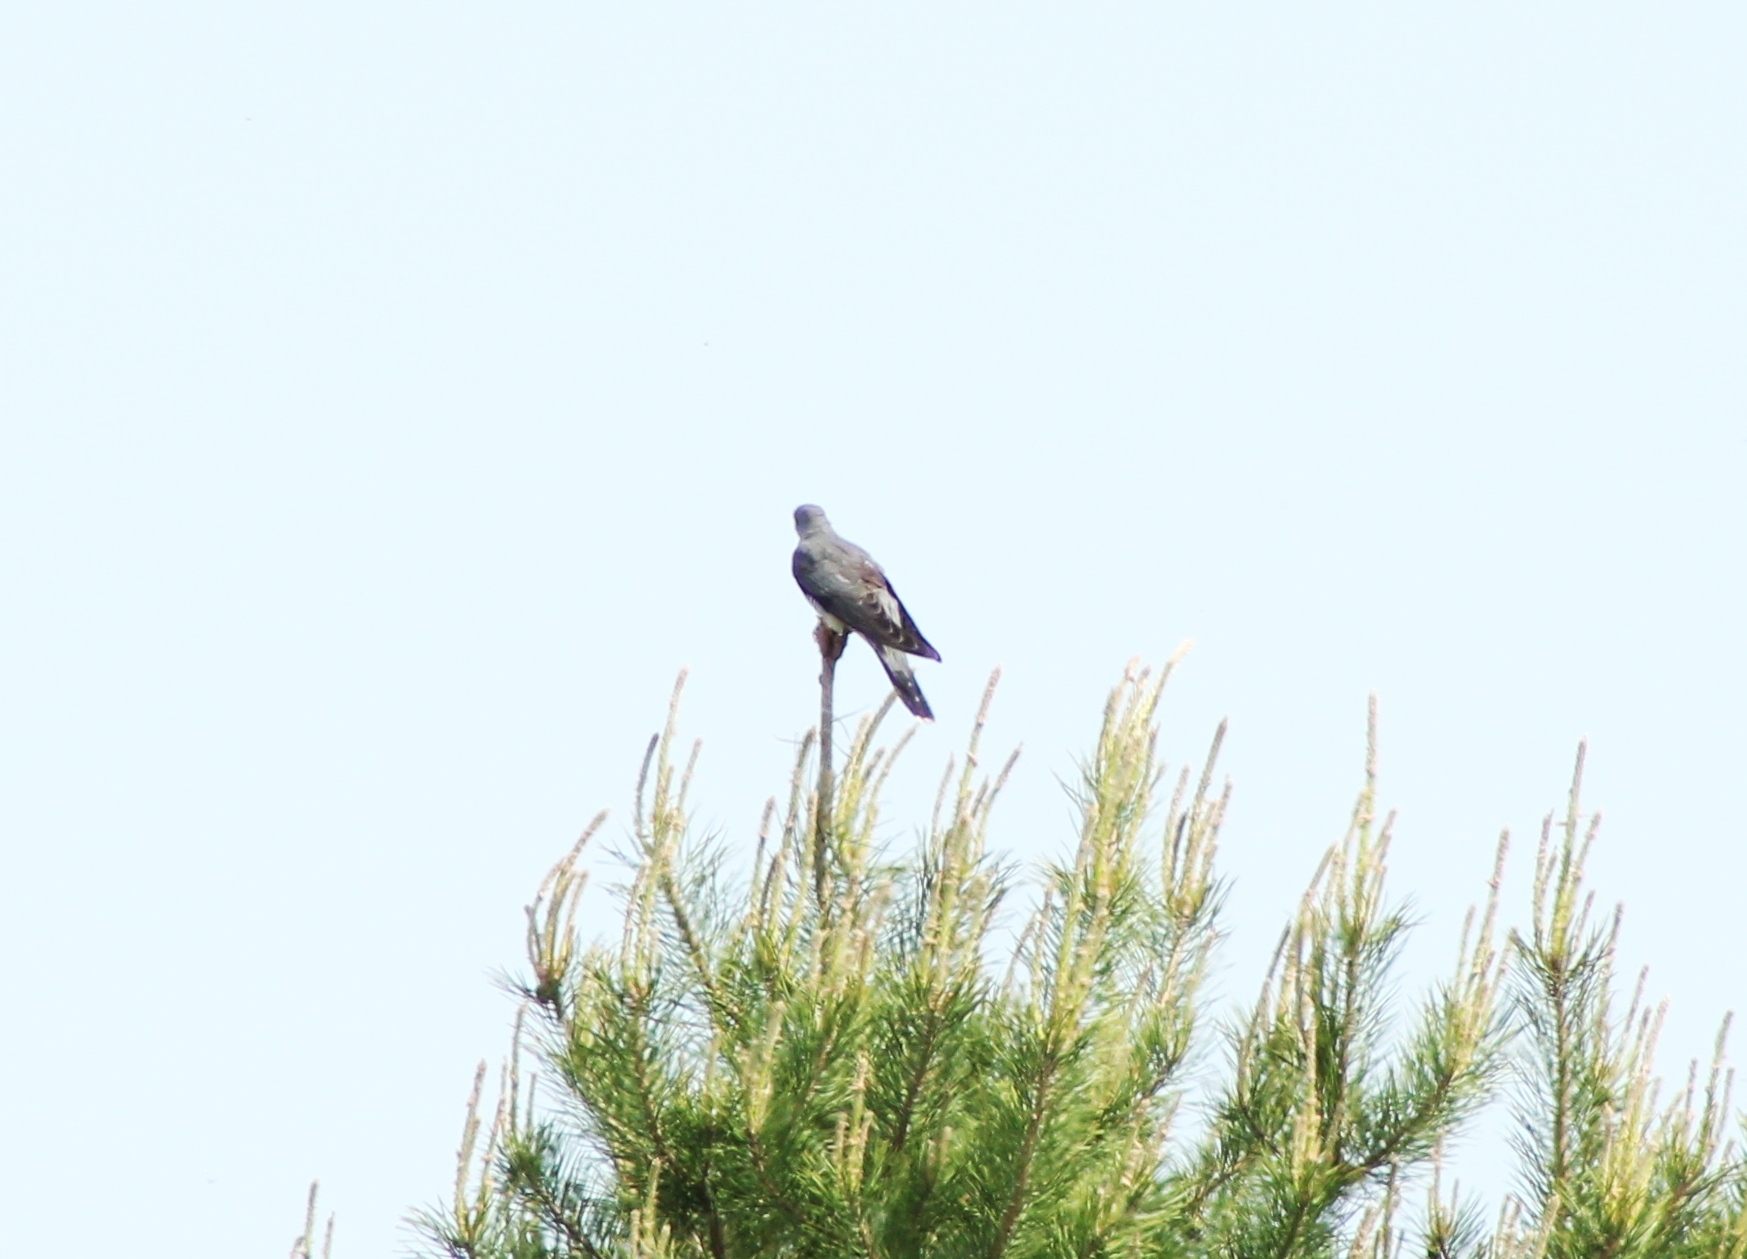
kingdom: Animalia
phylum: Chordata
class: Aves
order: Cuculiformes
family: Cuculidae
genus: Cuculus
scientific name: Cuculus canorus
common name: Common cuckoo
